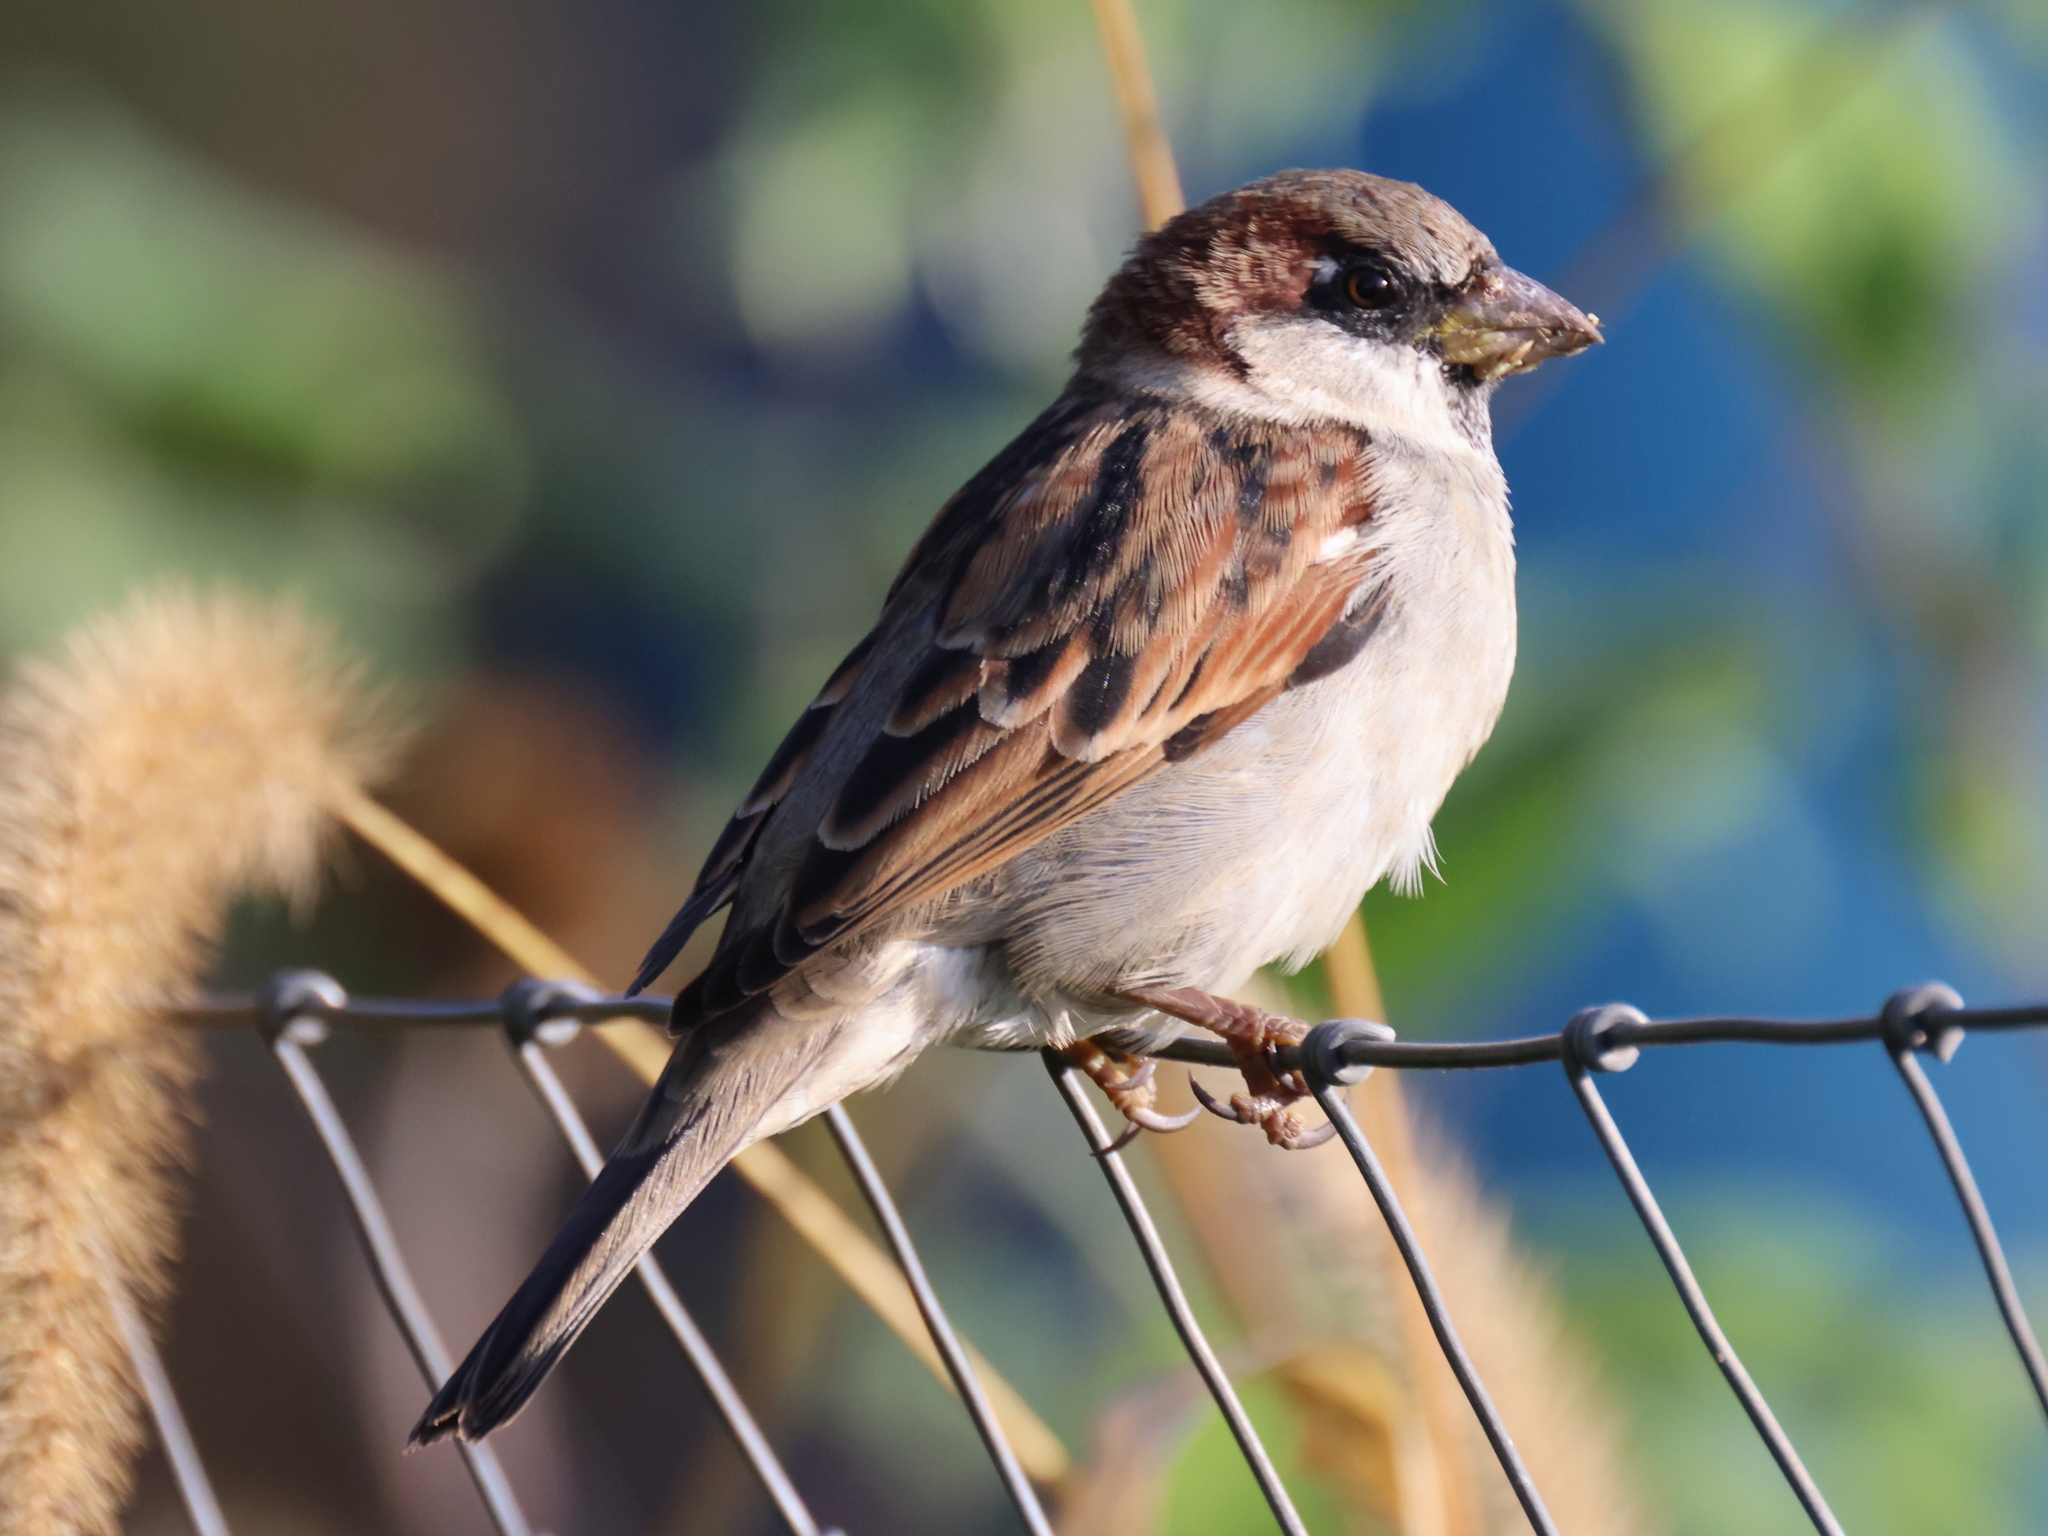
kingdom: Animalia
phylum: Chordata
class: Aves
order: Passeriformes
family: Passeridae
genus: Passer
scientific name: Passer domesticus
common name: House sparrow
